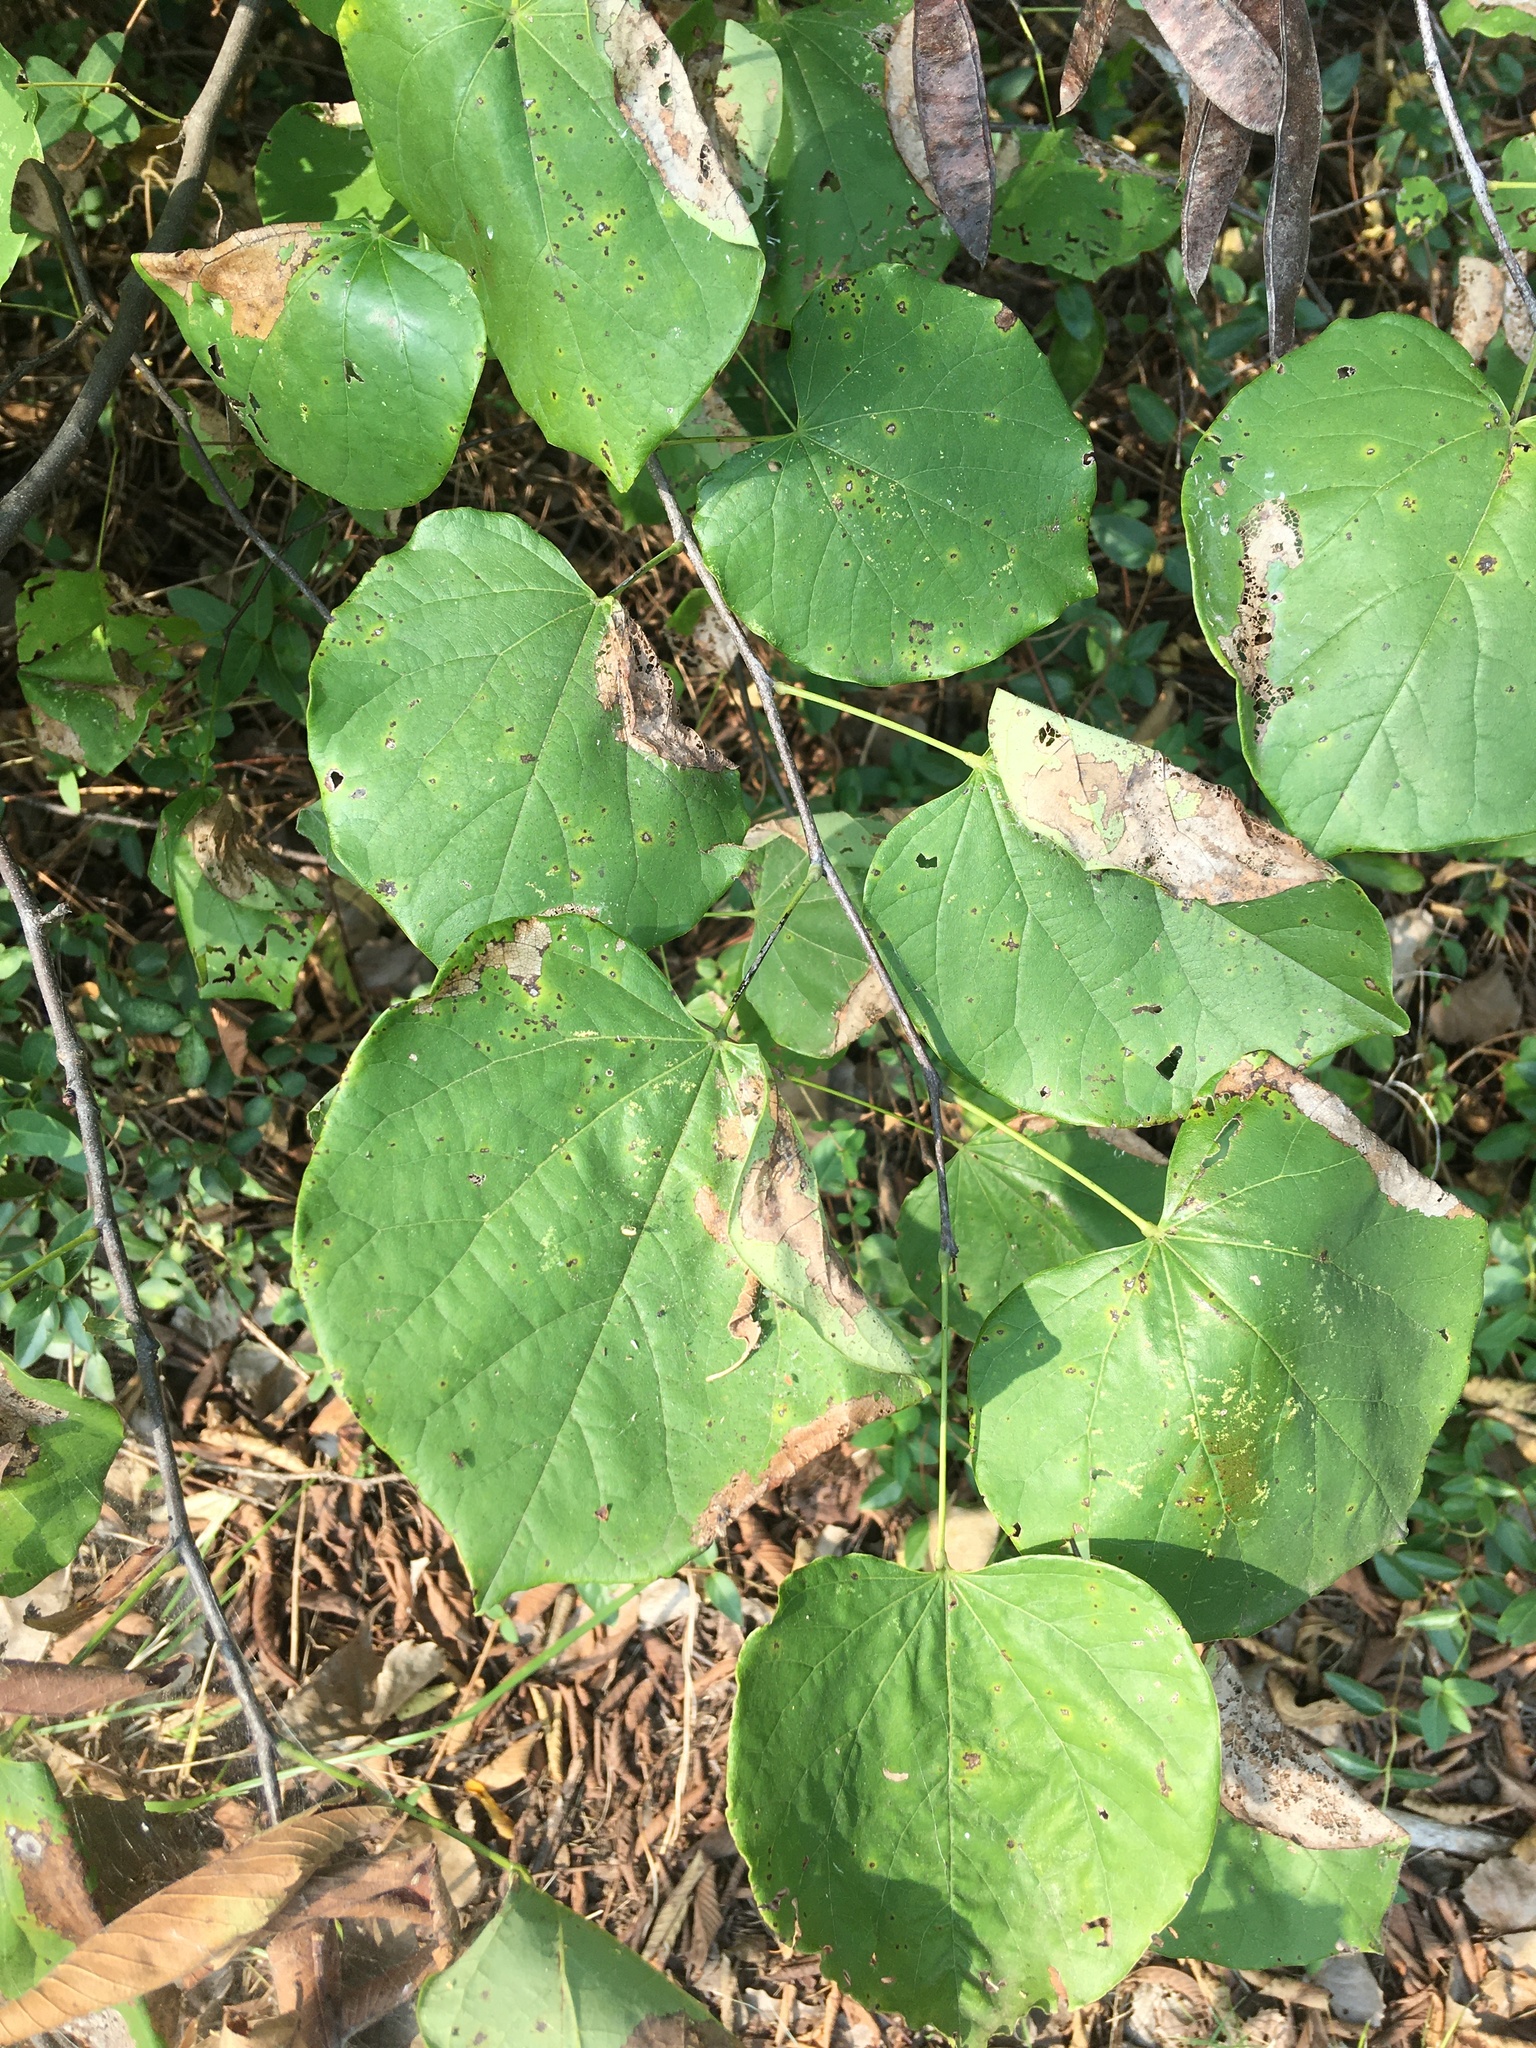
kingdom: Plantae
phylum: Tracheophyta
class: Magnoliopsida
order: Fabales
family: Fabaceae
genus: Cercis
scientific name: Cercis canadensis
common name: Eastern redbud
